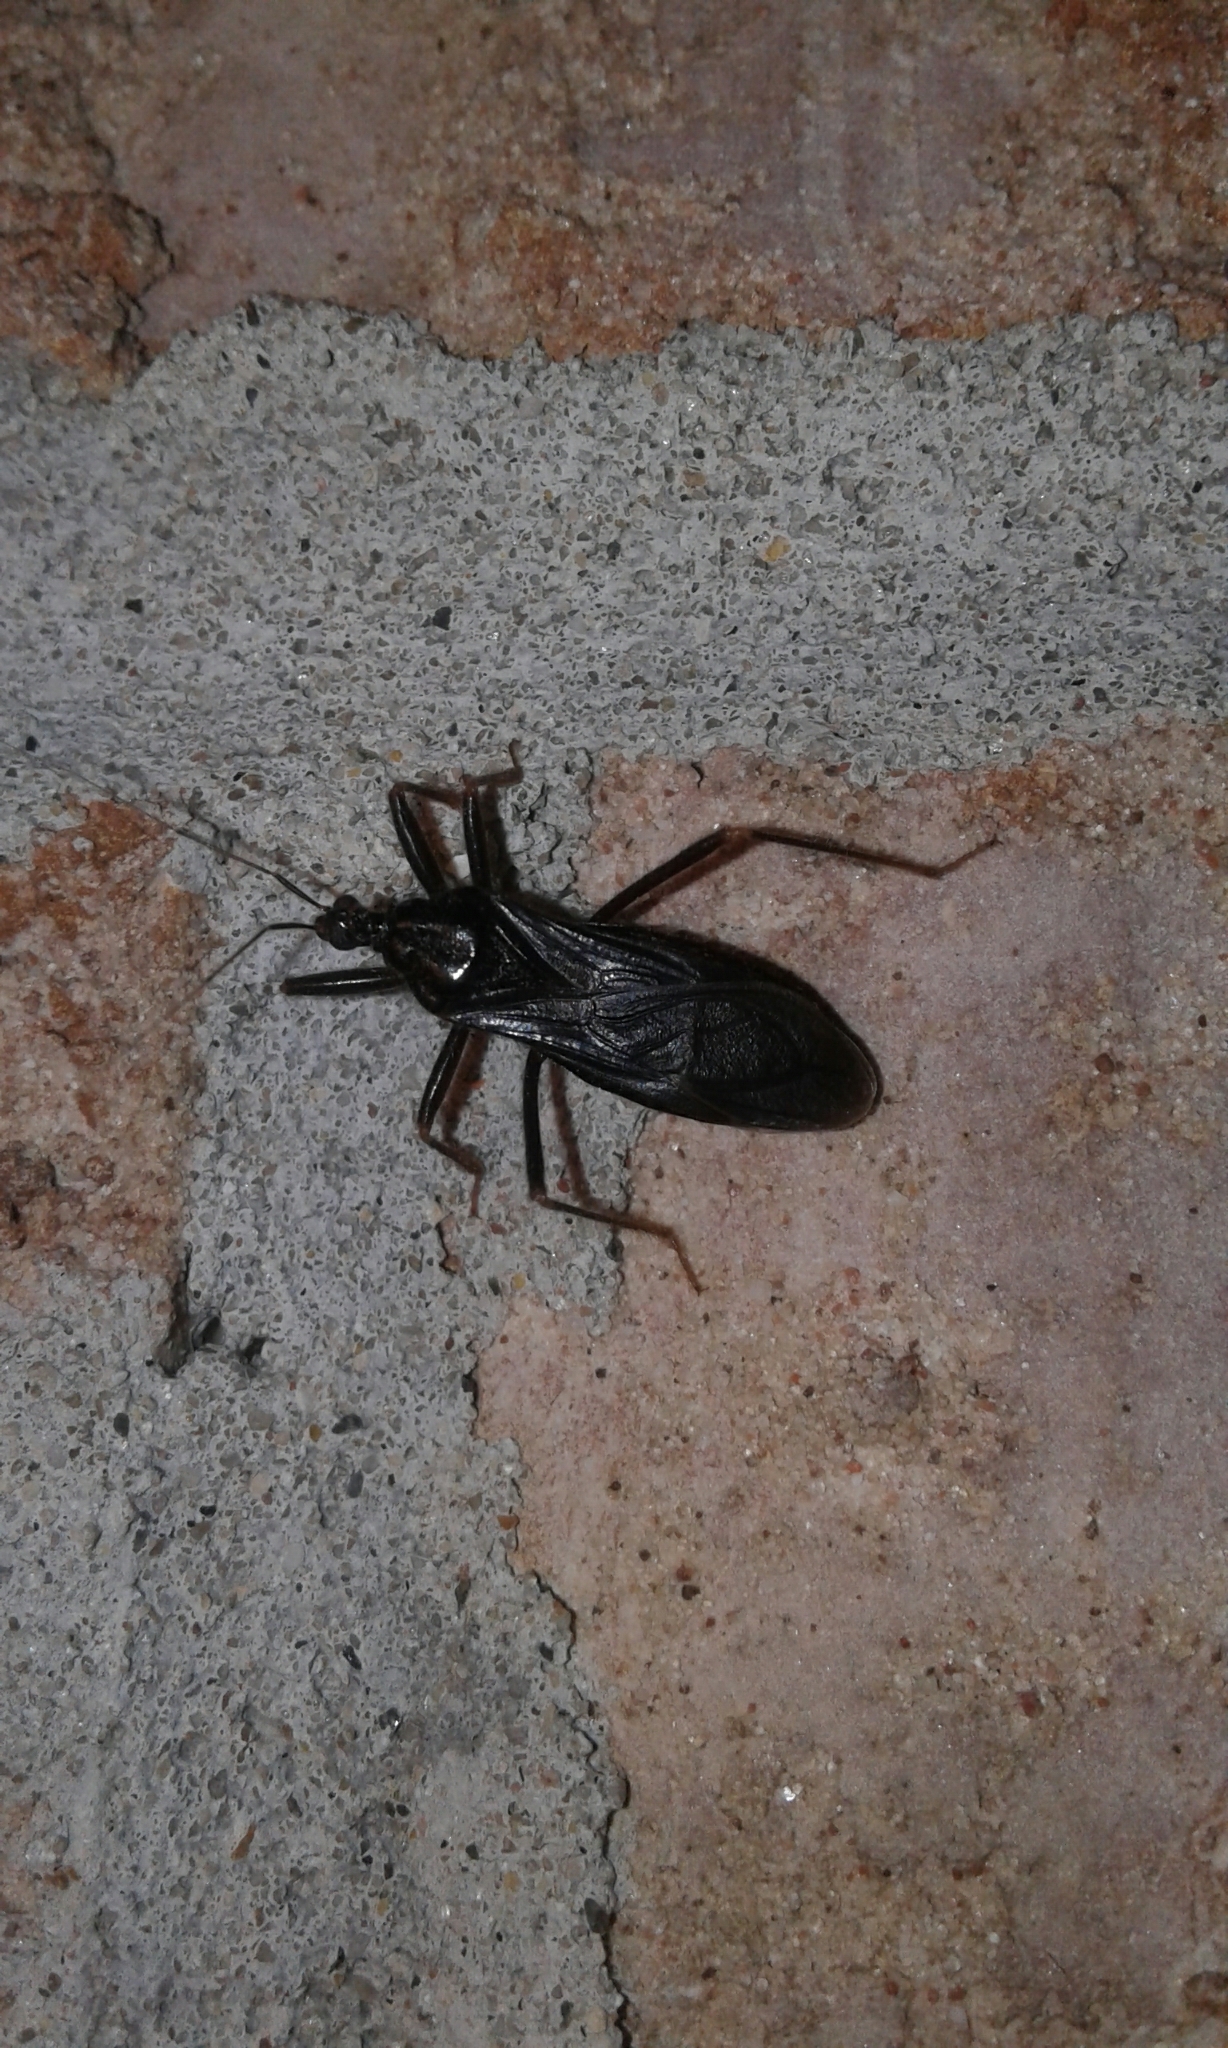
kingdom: Animalia
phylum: Arthropoda
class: Insecta
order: Hemiptera
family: Reduviidae
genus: Reduvius
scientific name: Reduvius personatus
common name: Masked hunter
